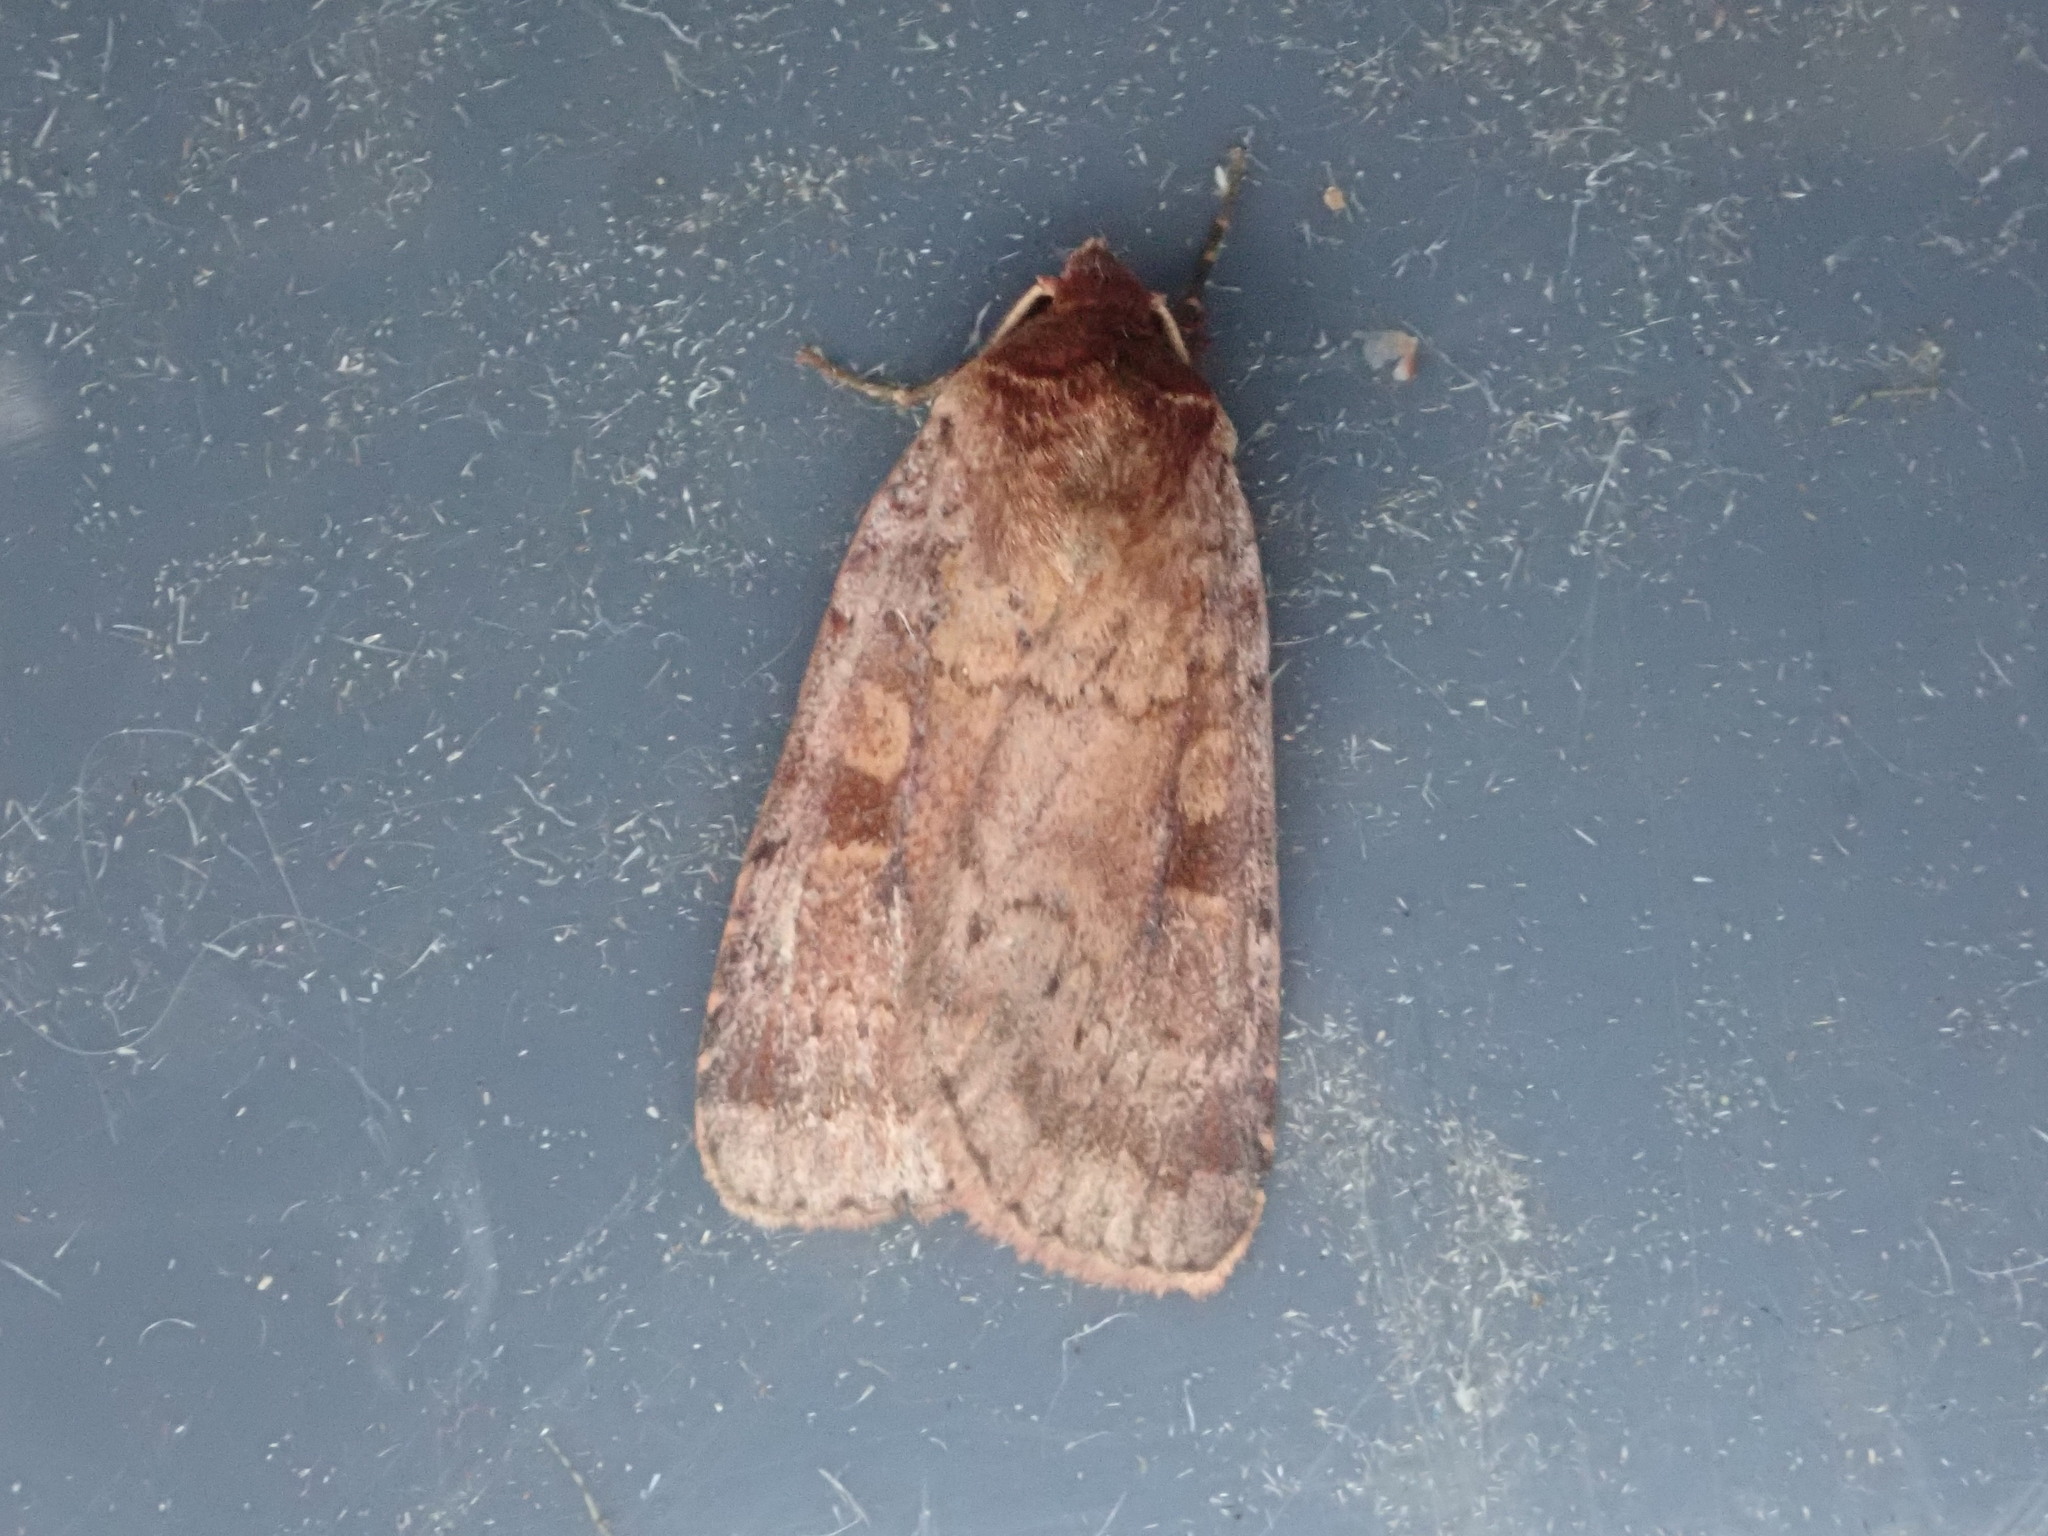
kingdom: Animalia
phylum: Arthropoda
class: Insecta
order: Lepidoptera
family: Noctuidae
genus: Lycophotia
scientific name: Lycophotia phyllophora
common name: Lycophotia moth
